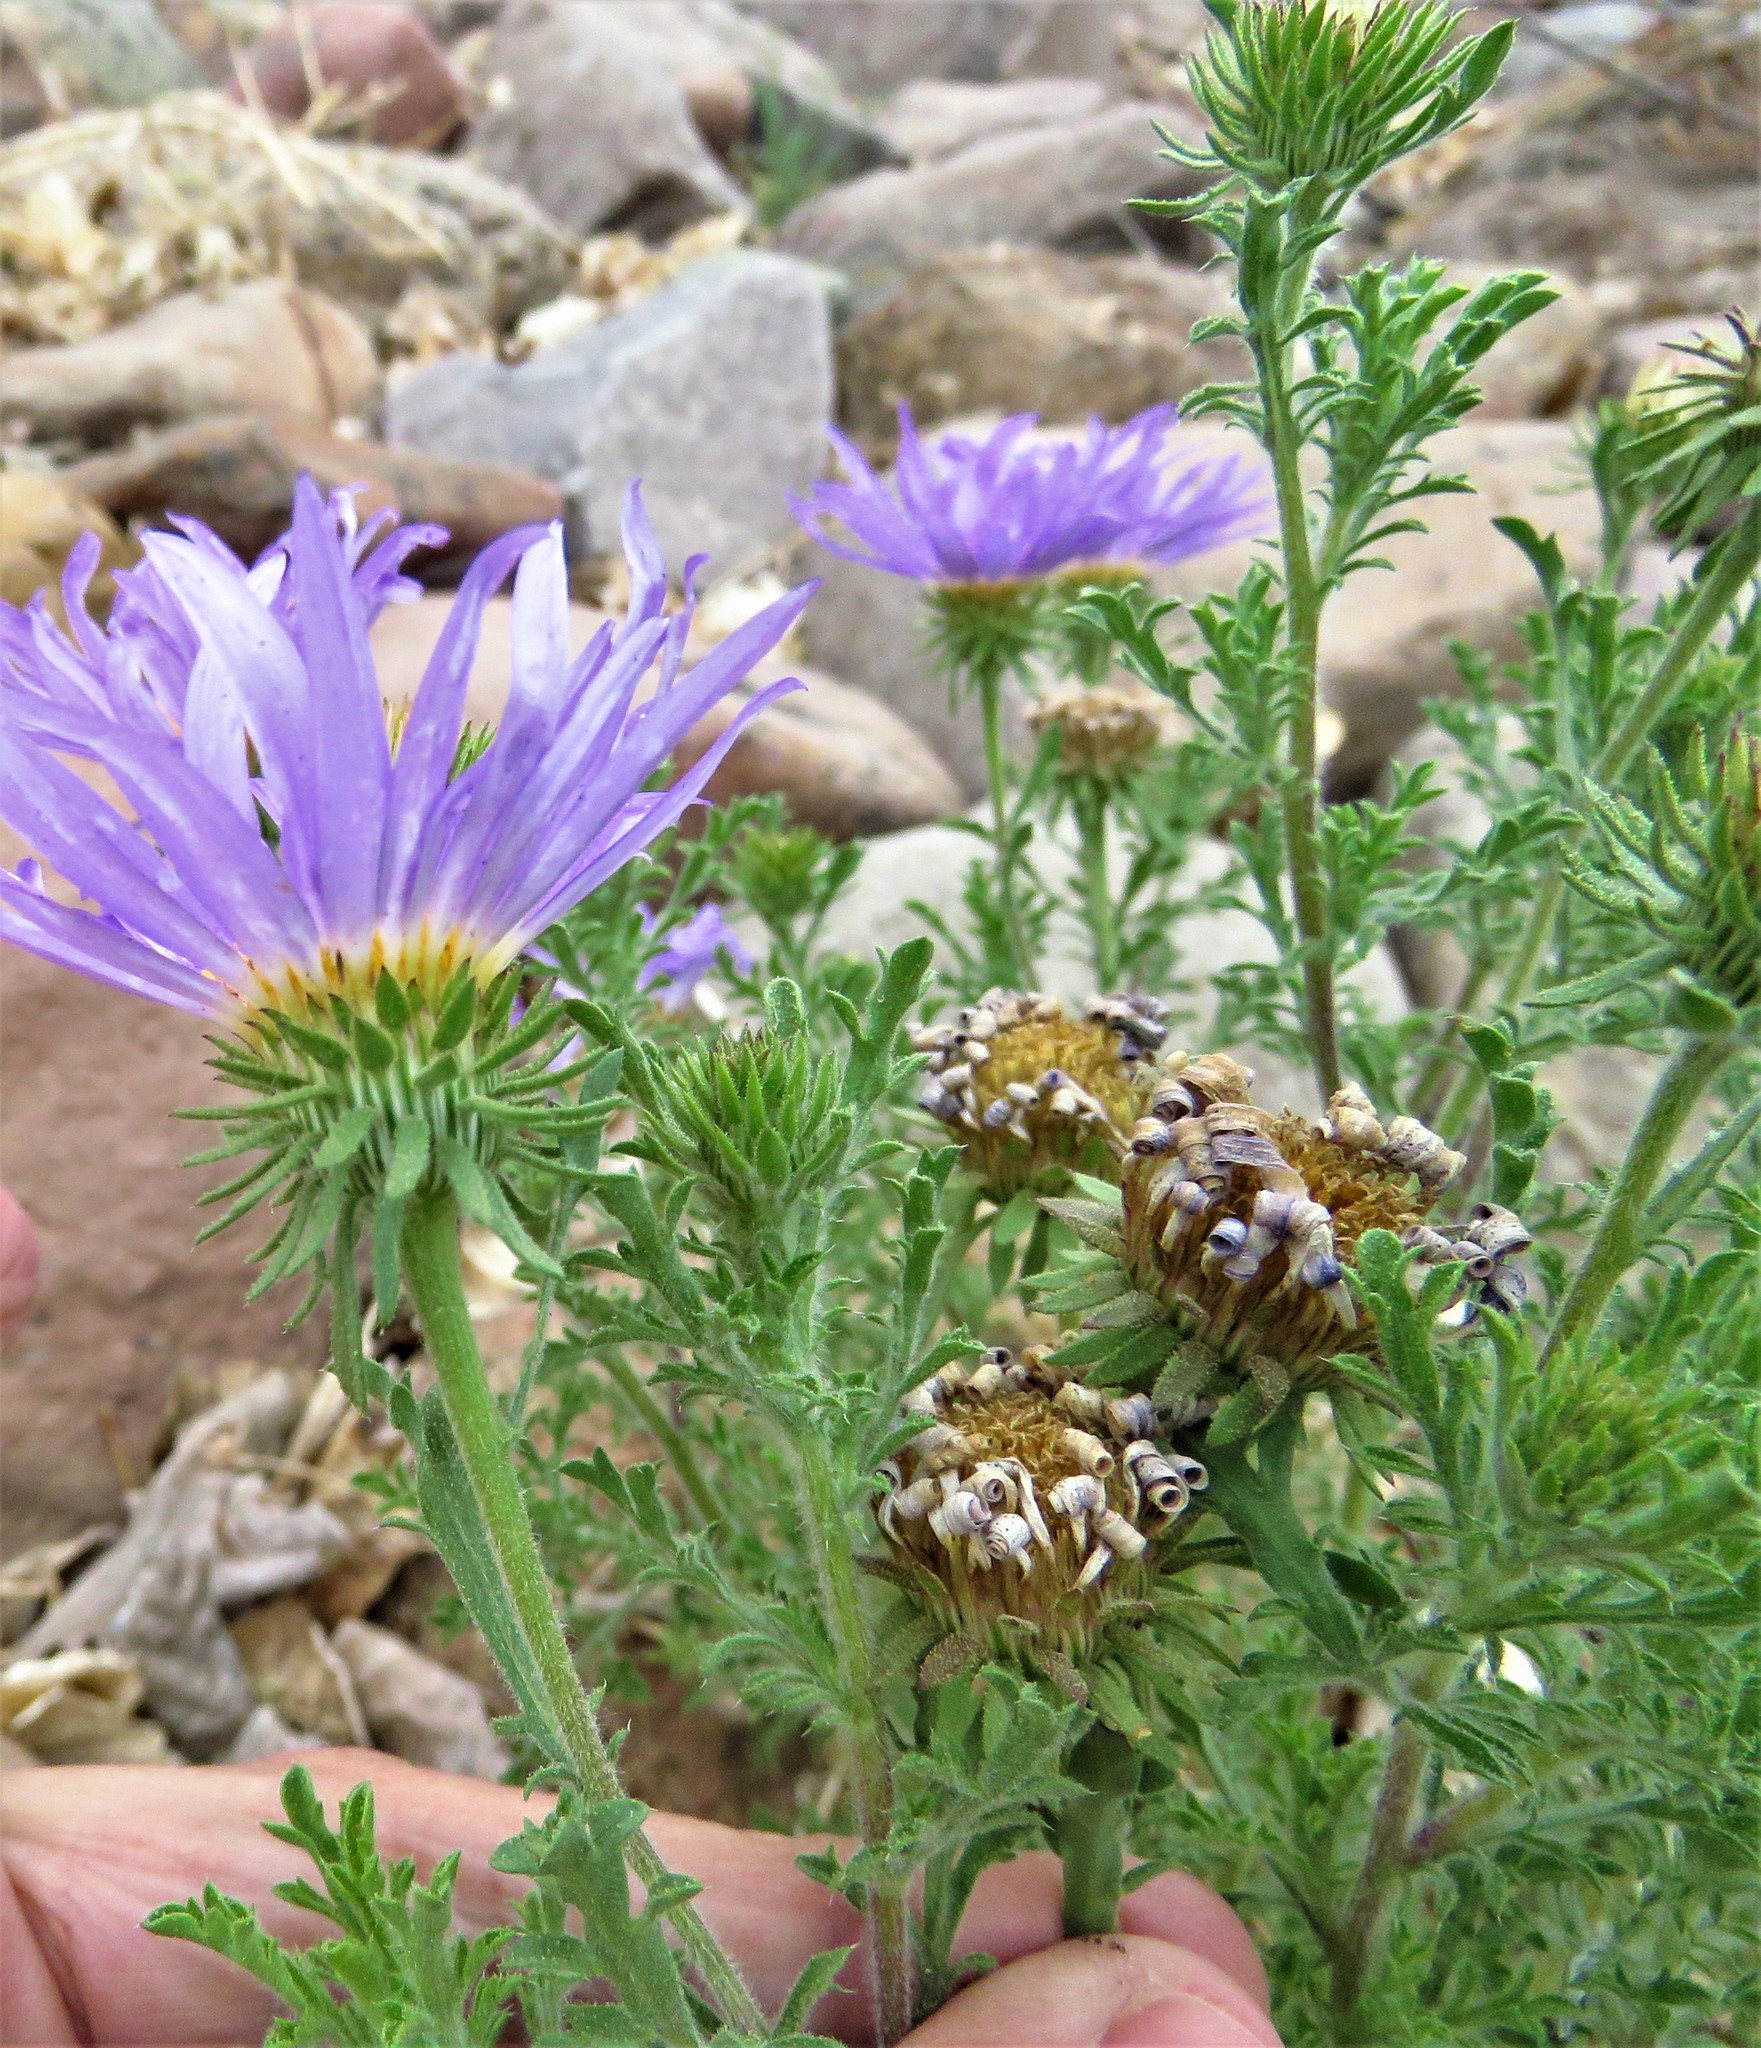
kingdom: Plantae
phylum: Tracheophyta
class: Magnoliopsida
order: Asterales
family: Asteraceae
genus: Machaeranthera
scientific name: Machaeranthera tanacetifolia
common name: Tansy-aster
